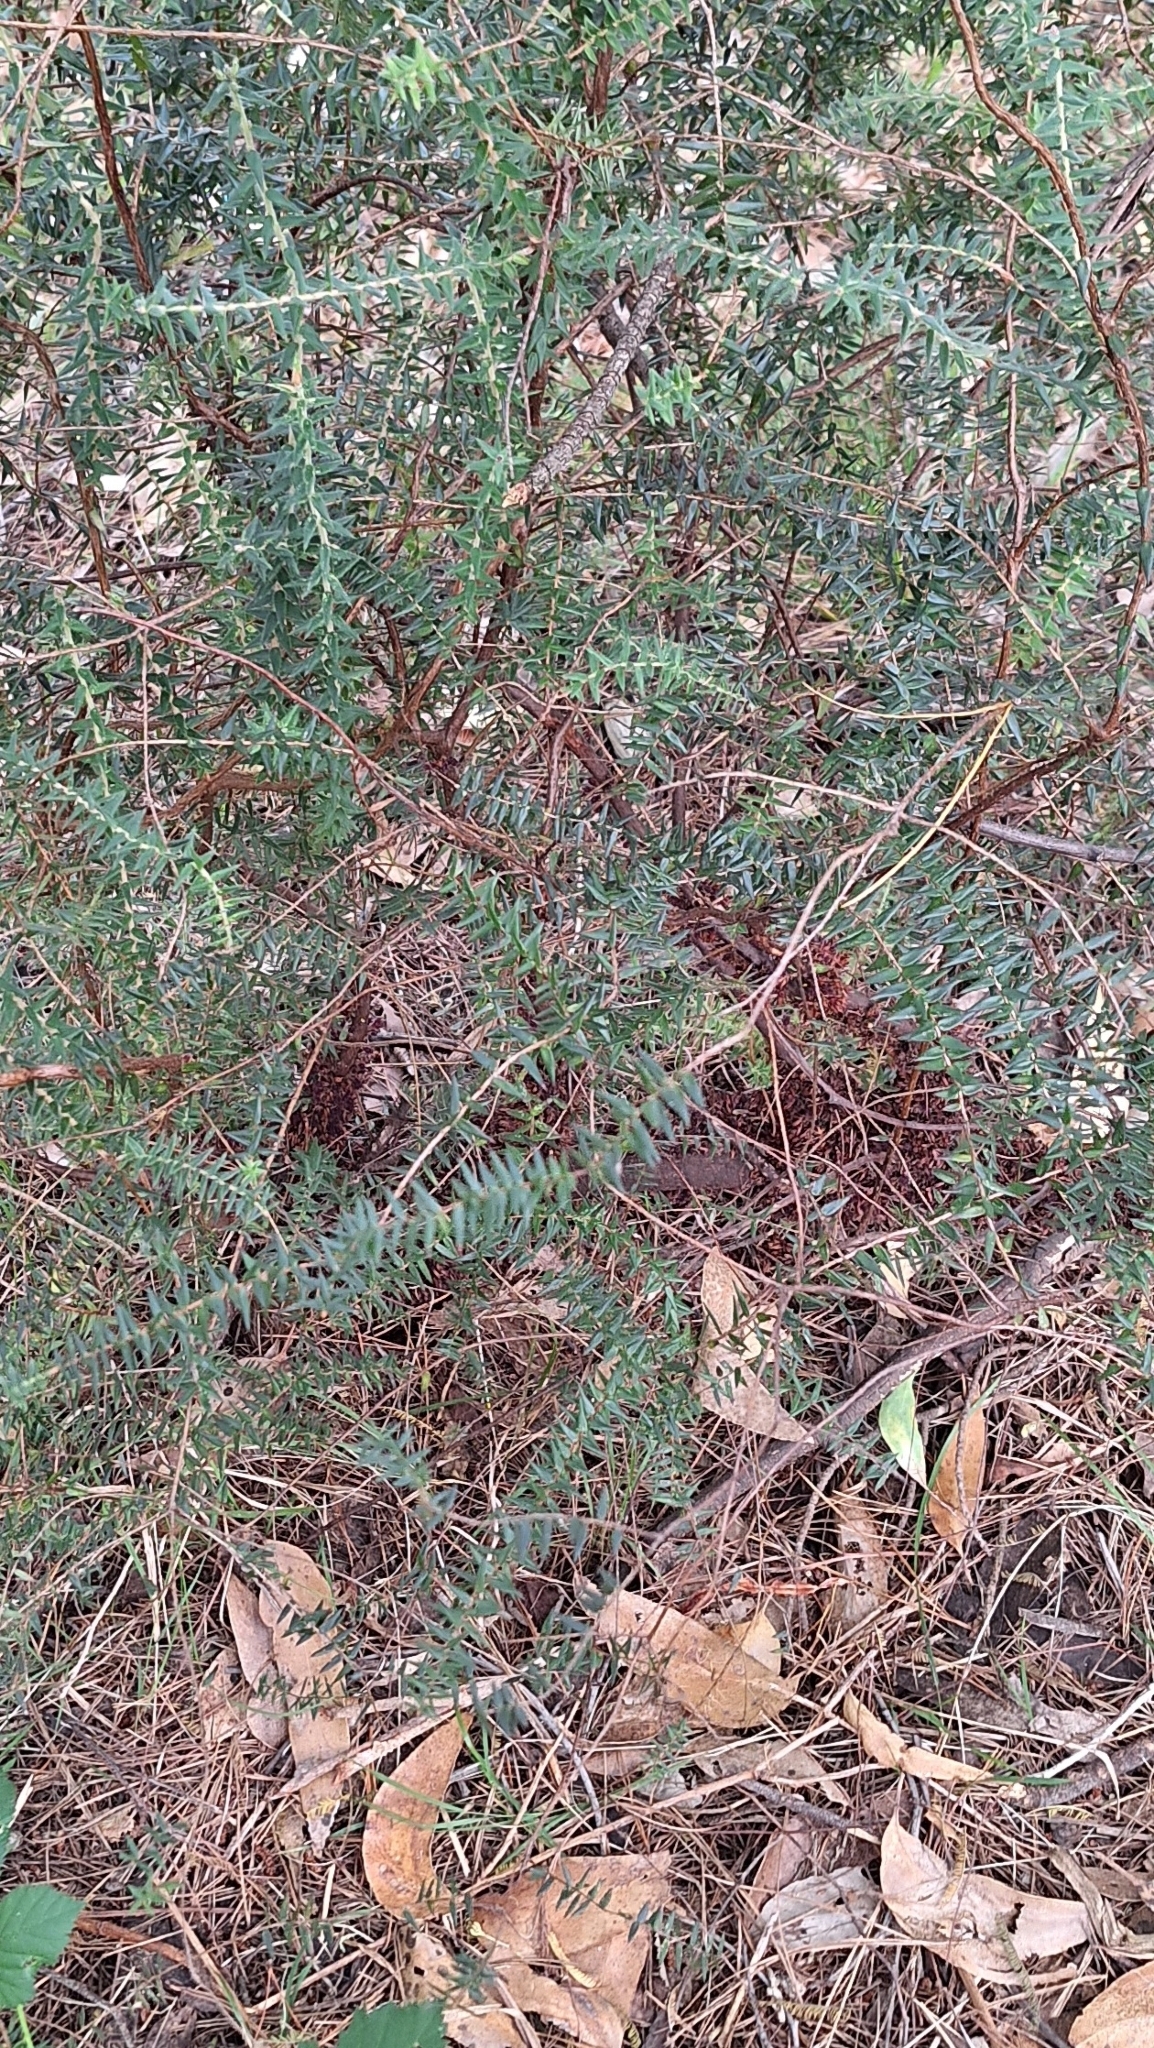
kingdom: Plantae
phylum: Tracheophyta
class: Magnoliopsida
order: Ericales
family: Ericaceae
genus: Acrotriche
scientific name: Acrotriche fasciculiflora
